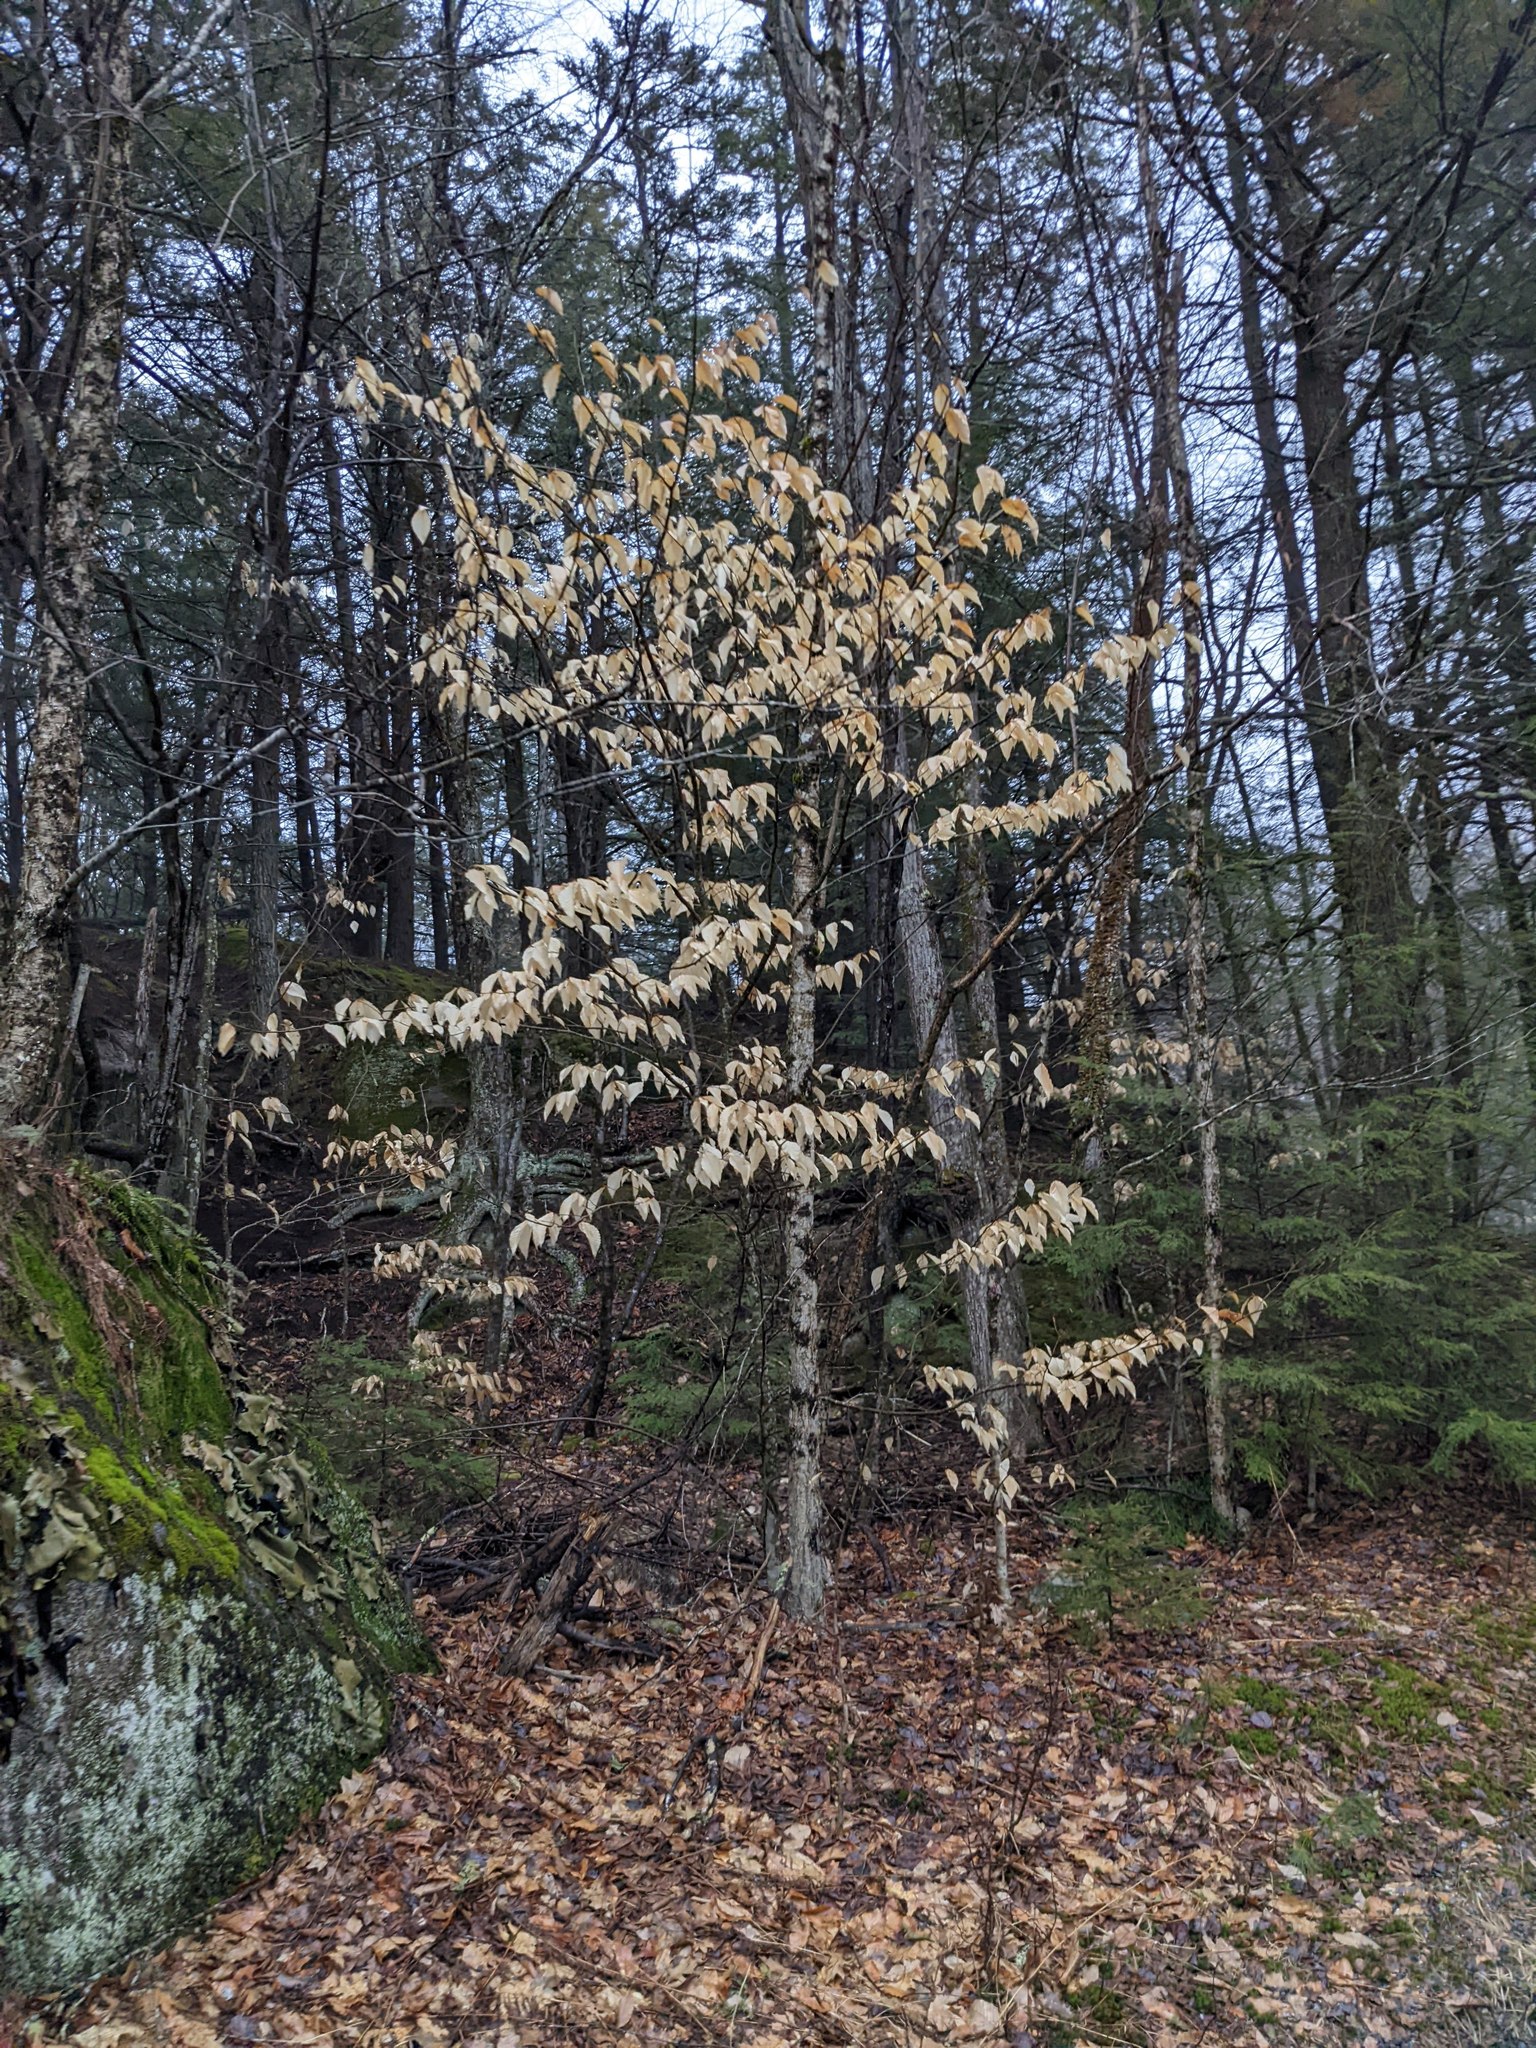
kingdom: Plantae
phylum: Tracheophyta
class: Magnoliopsida
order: Fagales
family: Fagaceae
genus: Fagus
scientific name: Fagus grandifolia
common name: American beech
